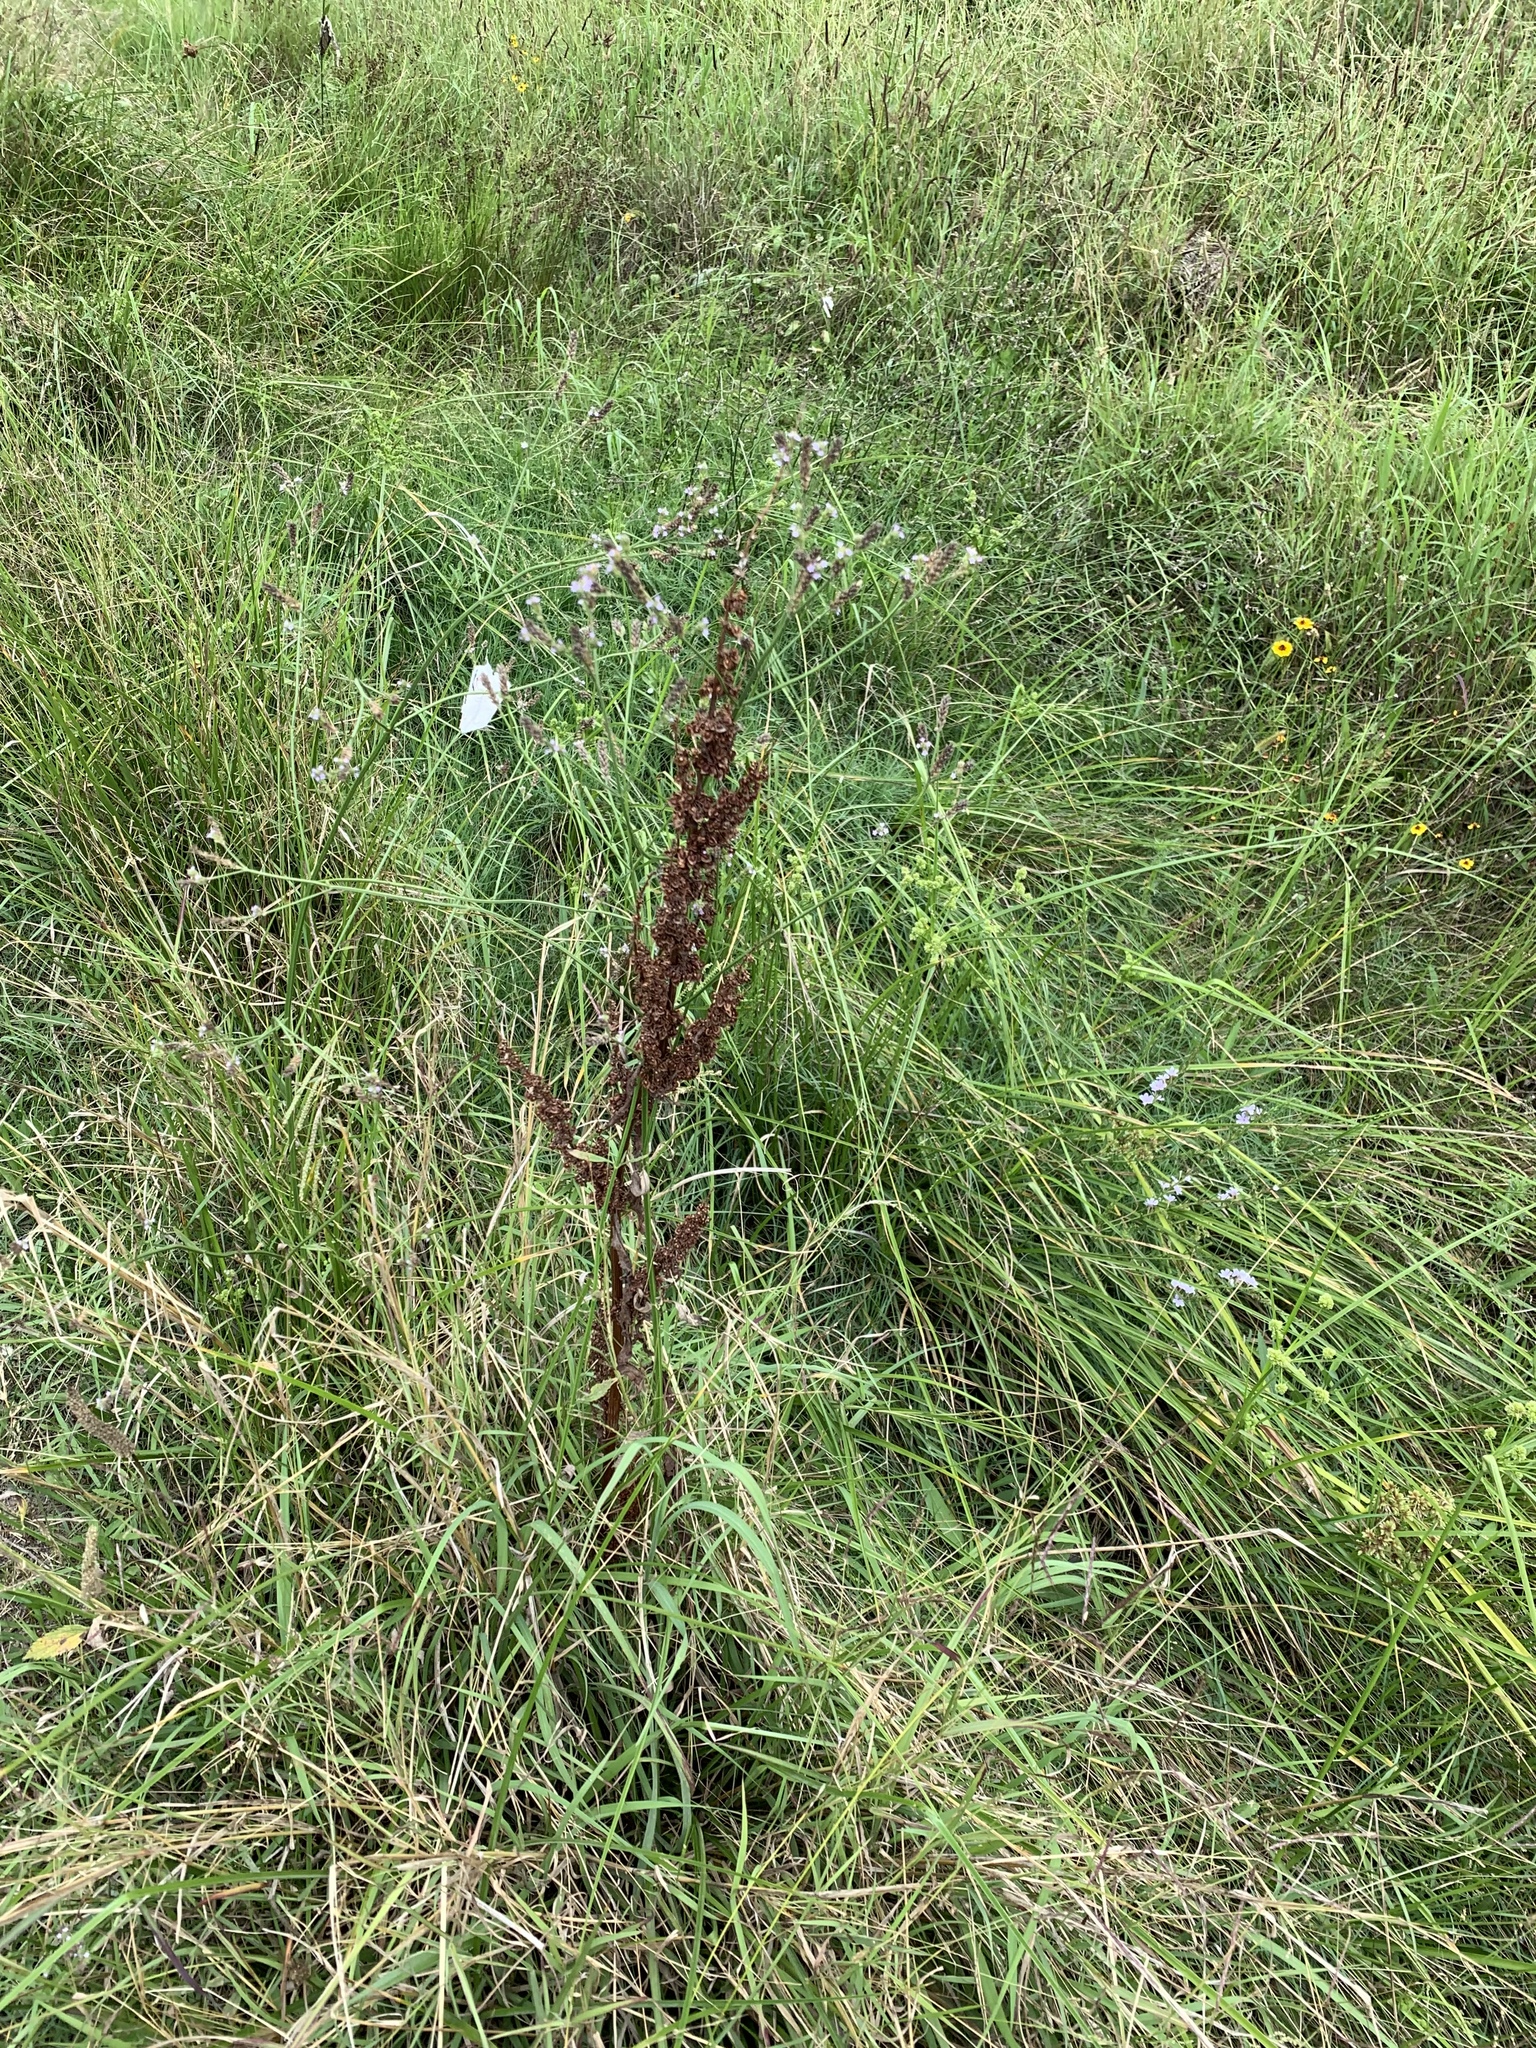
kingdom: Plantae
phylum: Tracheophyta
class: Magnoliopsida
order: Caryophyllales
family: Polygonaceae
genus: Rumex
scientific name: Rumex crispus
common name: Curled dock
